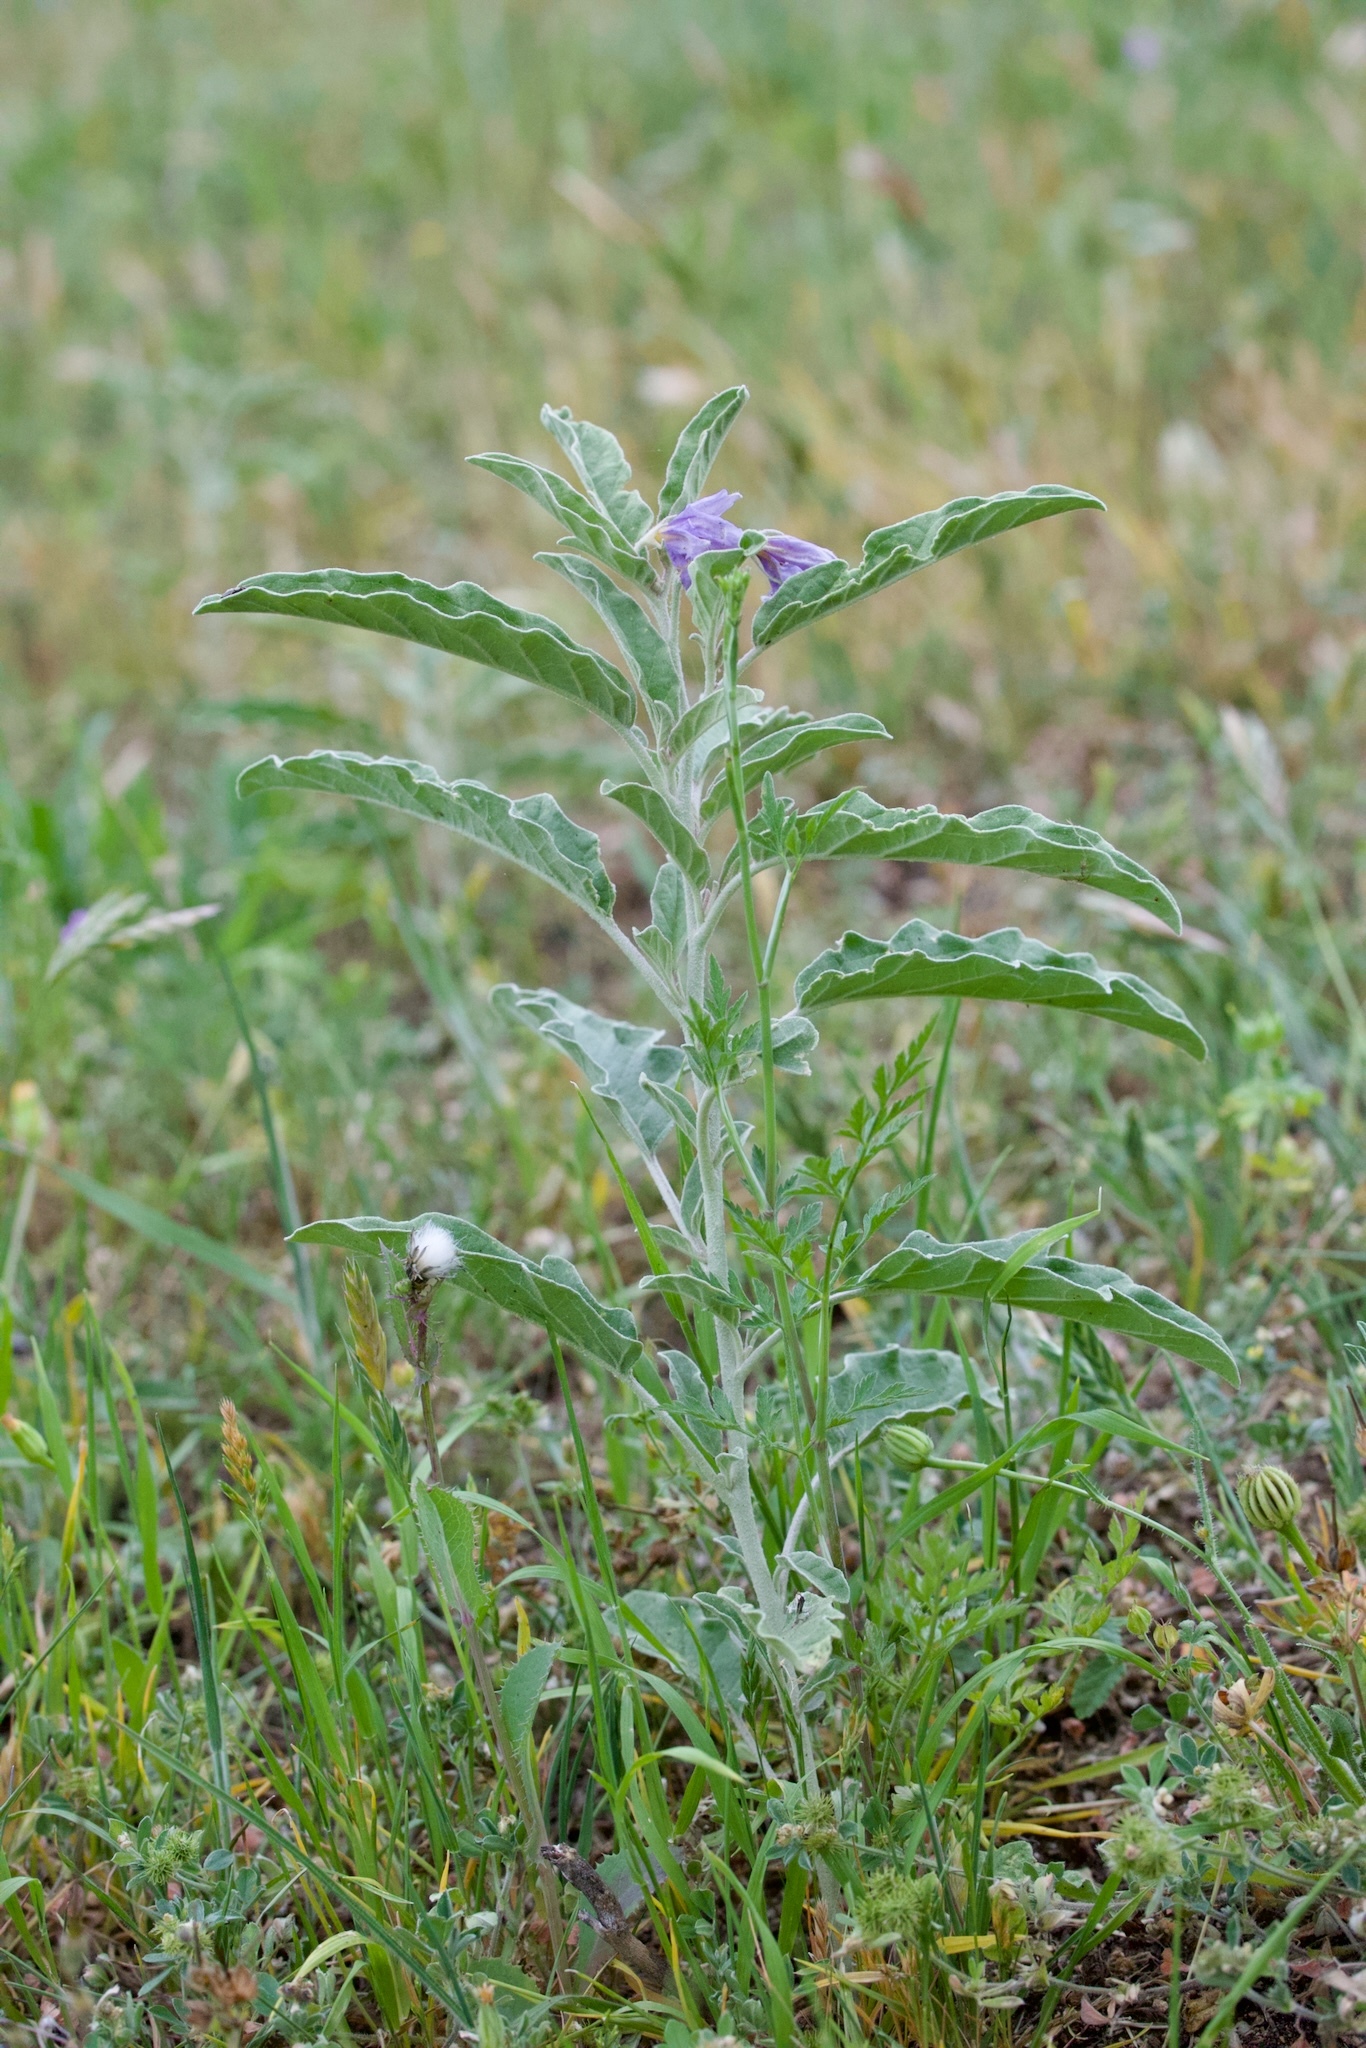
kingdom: Plantae
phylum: Tracheophyta
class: Magnoliopsida
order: Solanales
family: Solanaceae
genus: Solanum
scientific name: Solanum elaeagnifolium
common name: Silverleaf nightshade
